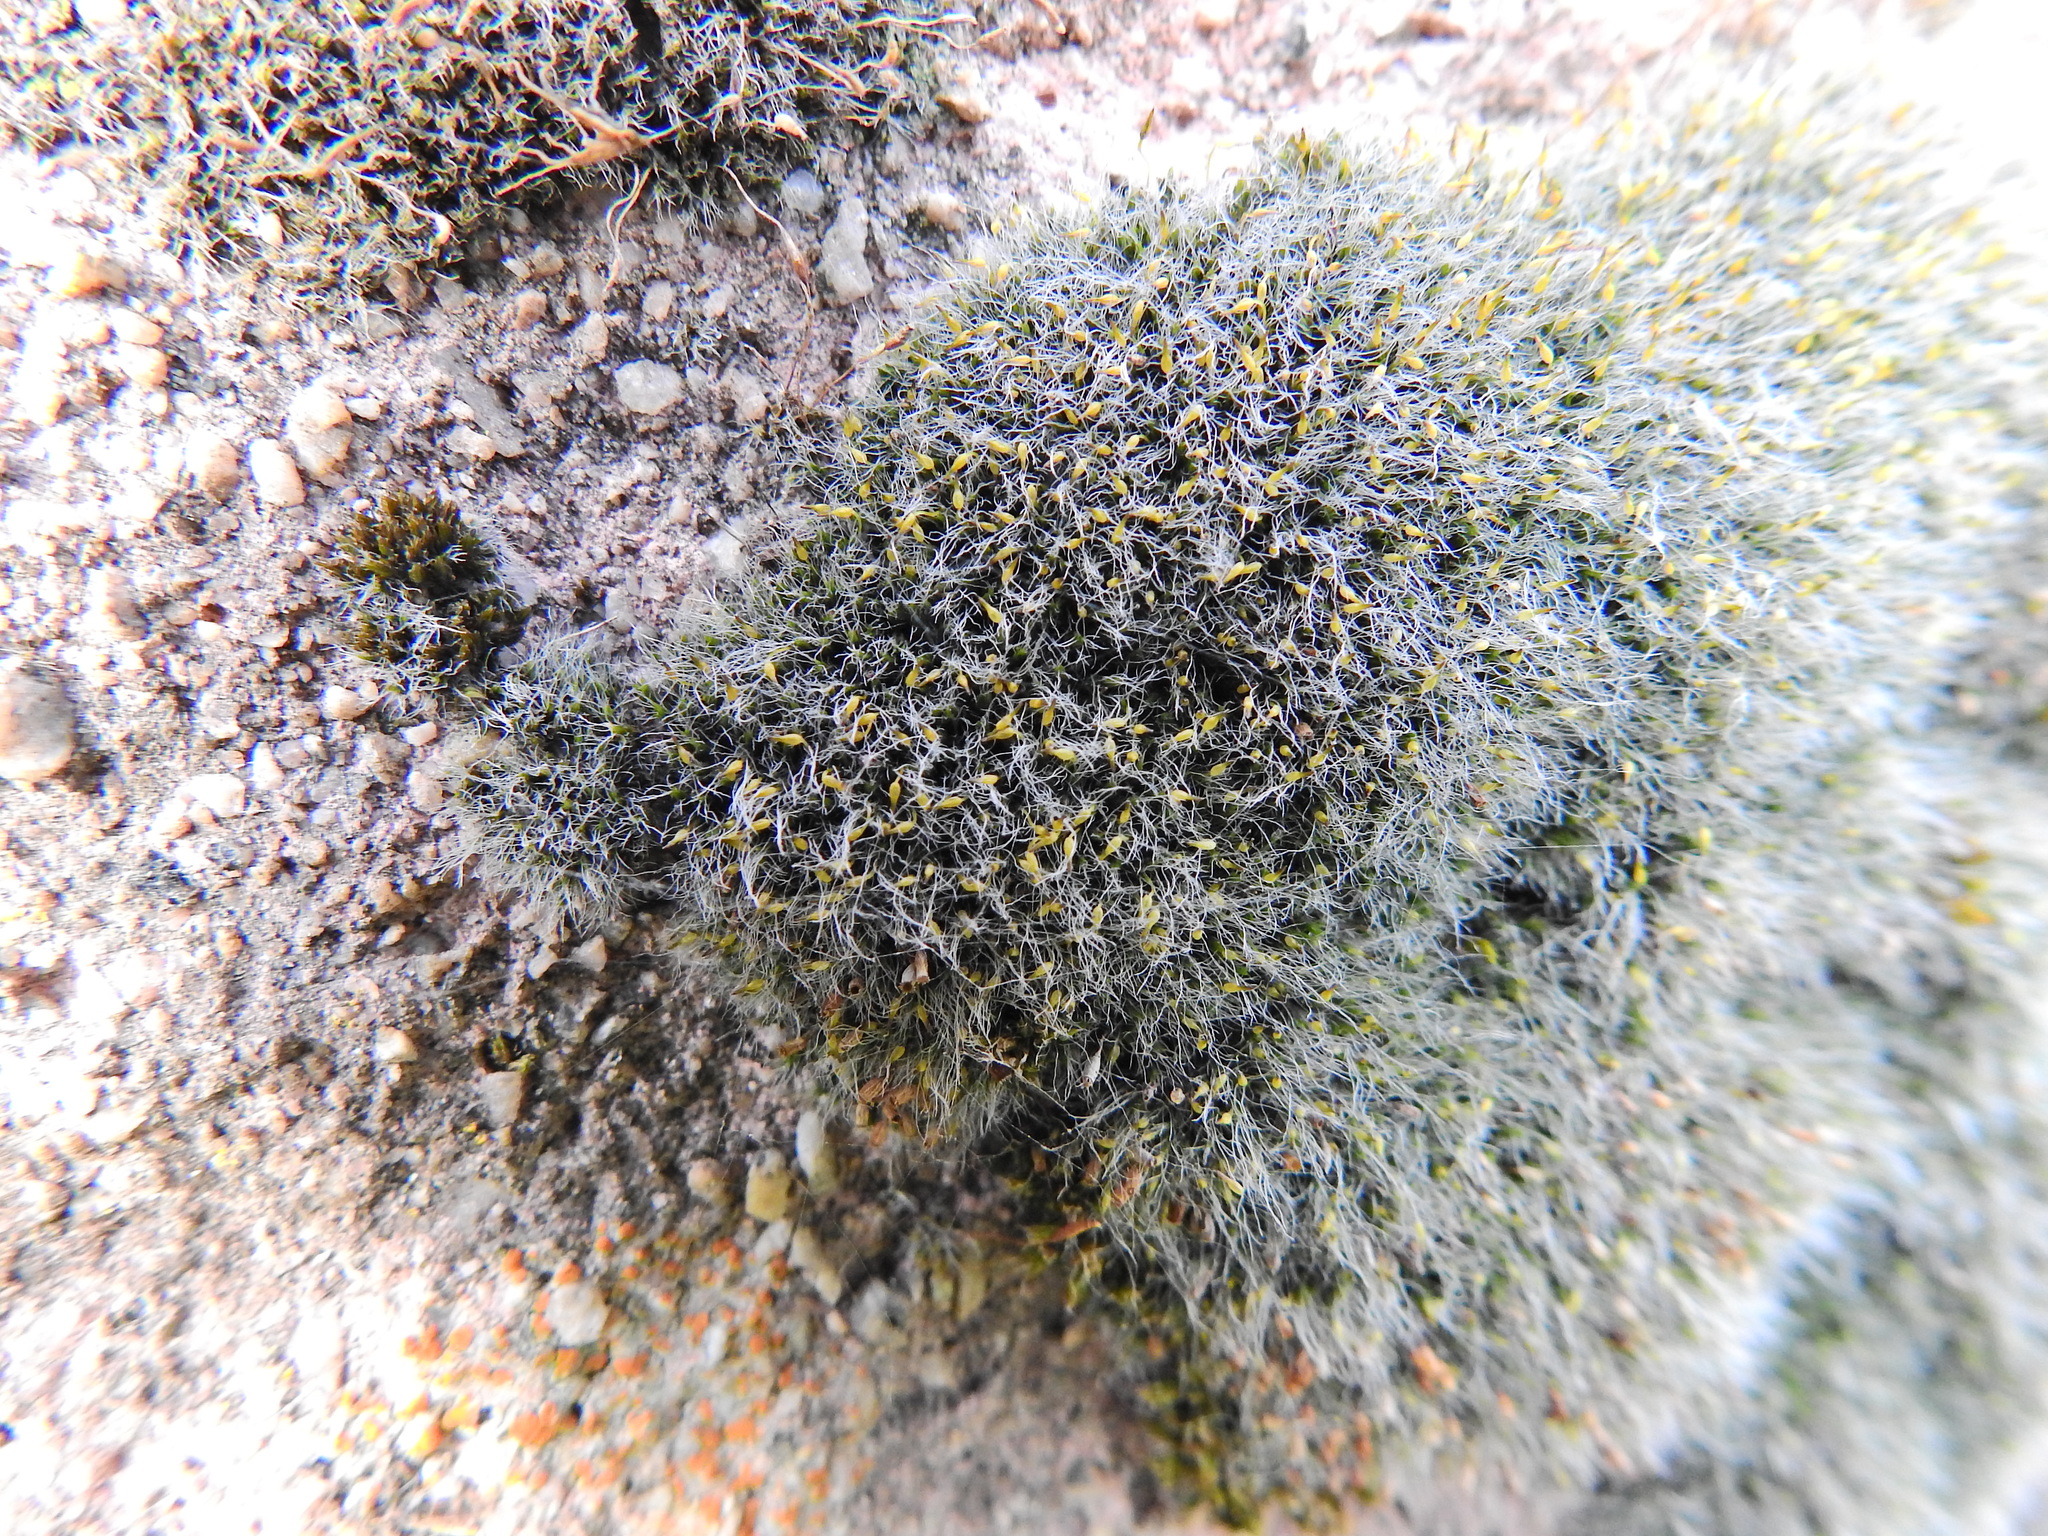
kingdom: Plantae
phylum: Bryophyta
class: Bryopsida
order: Grimmiales
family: Grimmiaceae
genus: Grimmia
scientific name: Grimmia pulvinata
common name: Grey-cushioned grimmia
